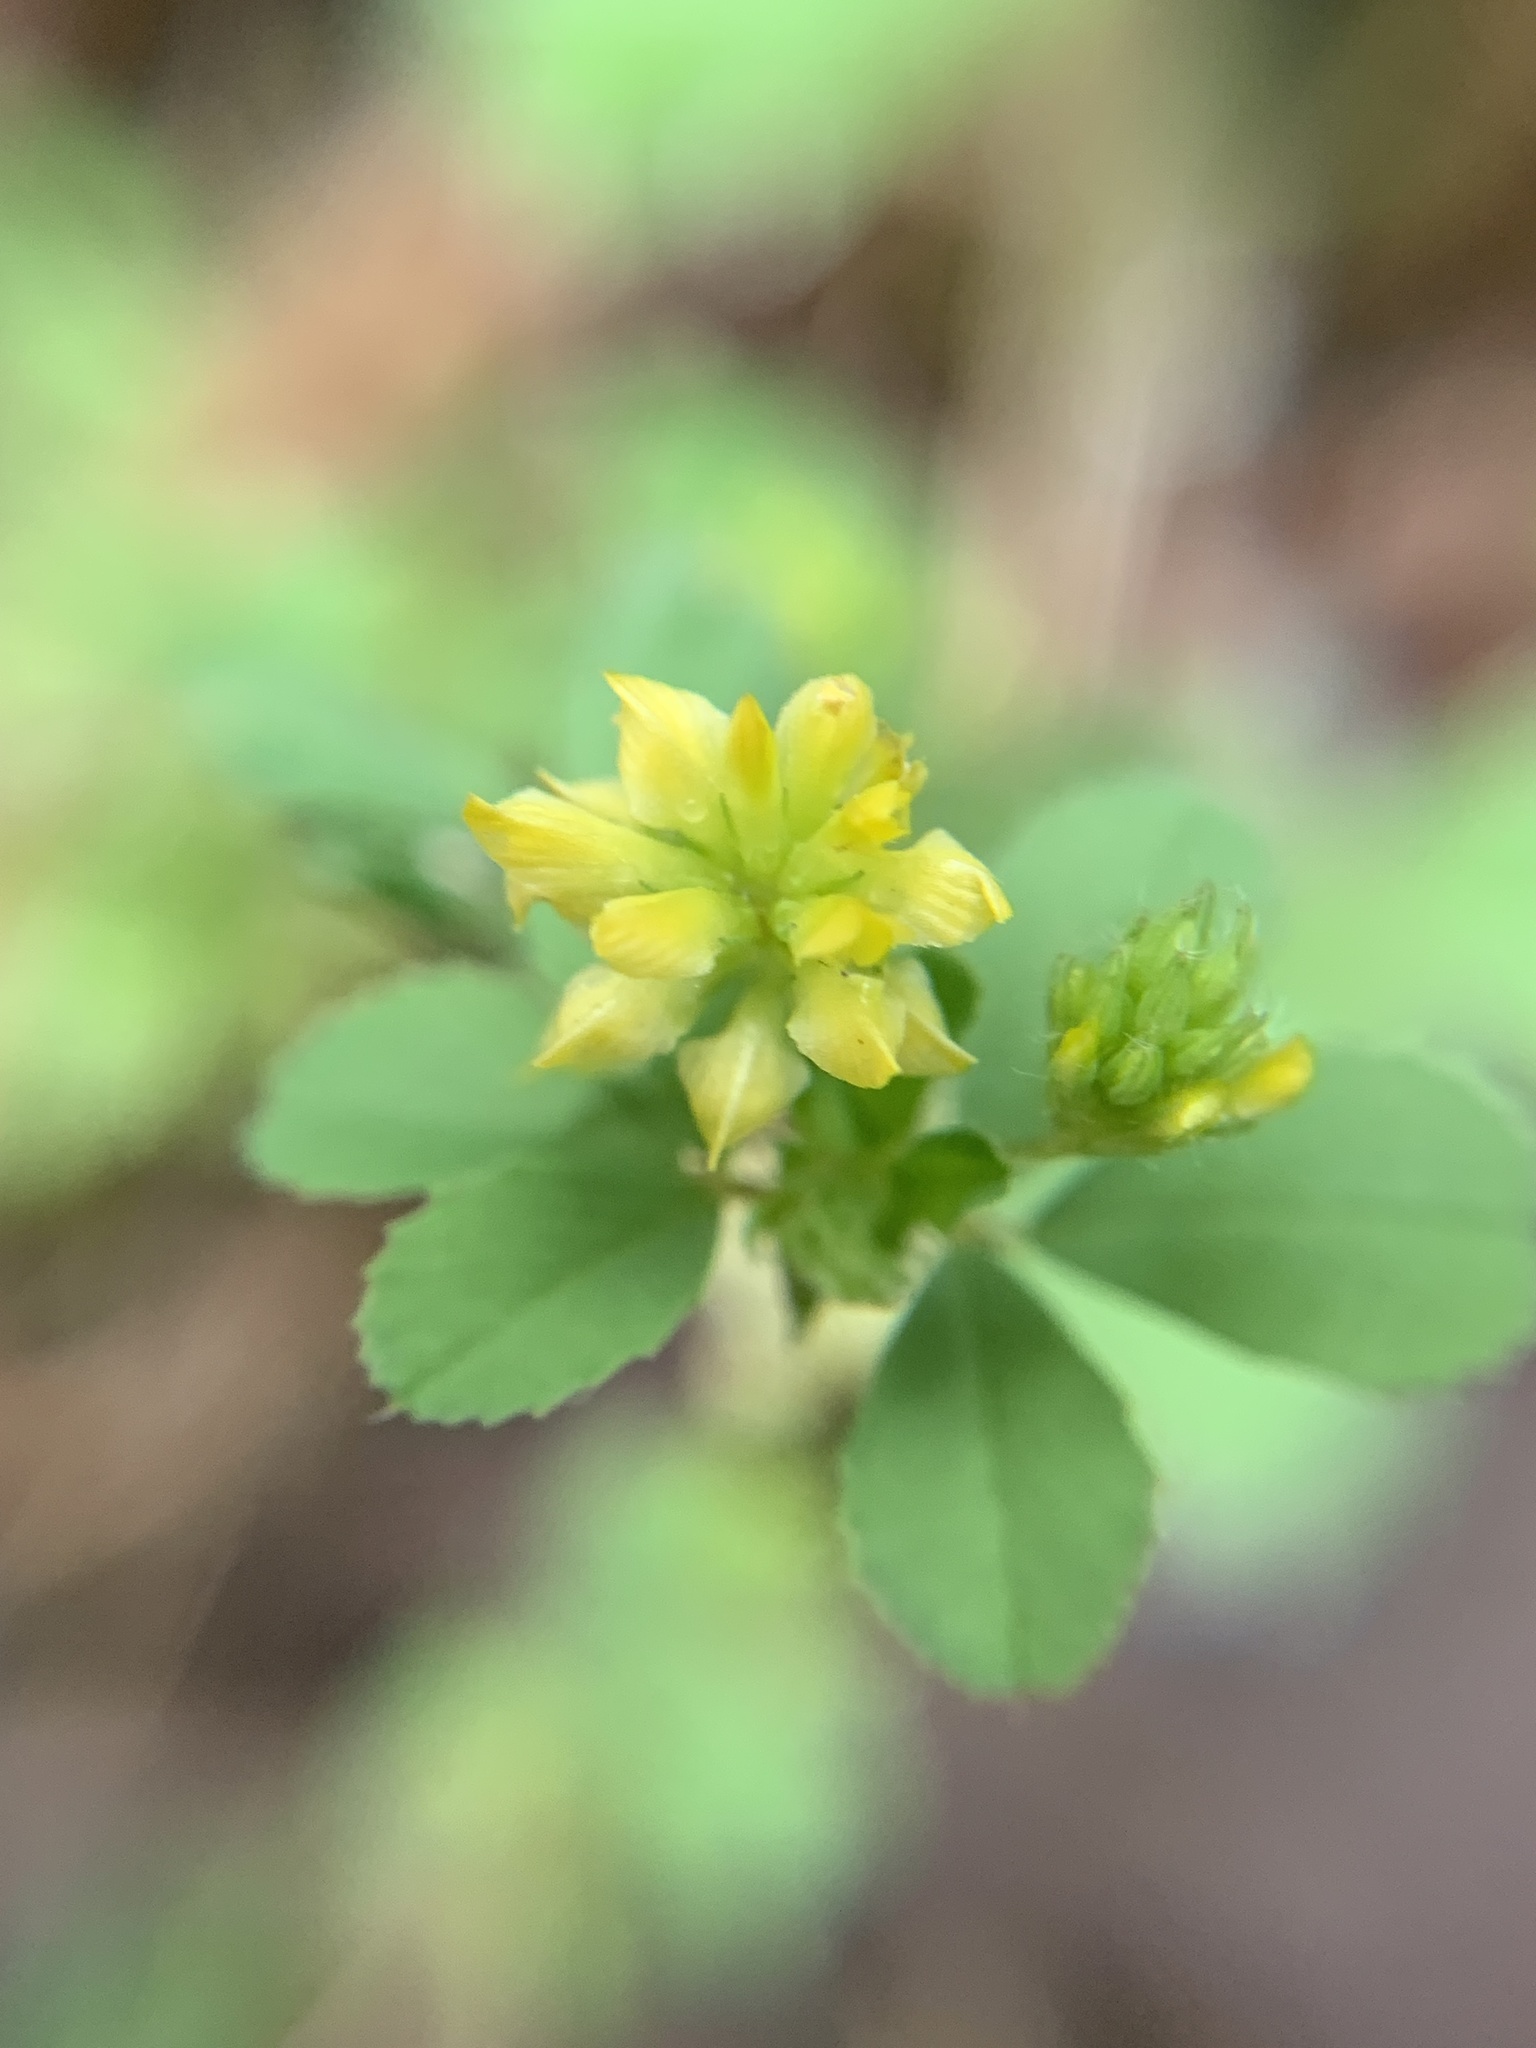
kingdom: Plantae
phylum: Tracheophyta
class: Magnoliopsida
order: Fabales
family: Fabaceae
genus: Trifolium
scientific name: Trifolium dubium
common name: Suckling clover
